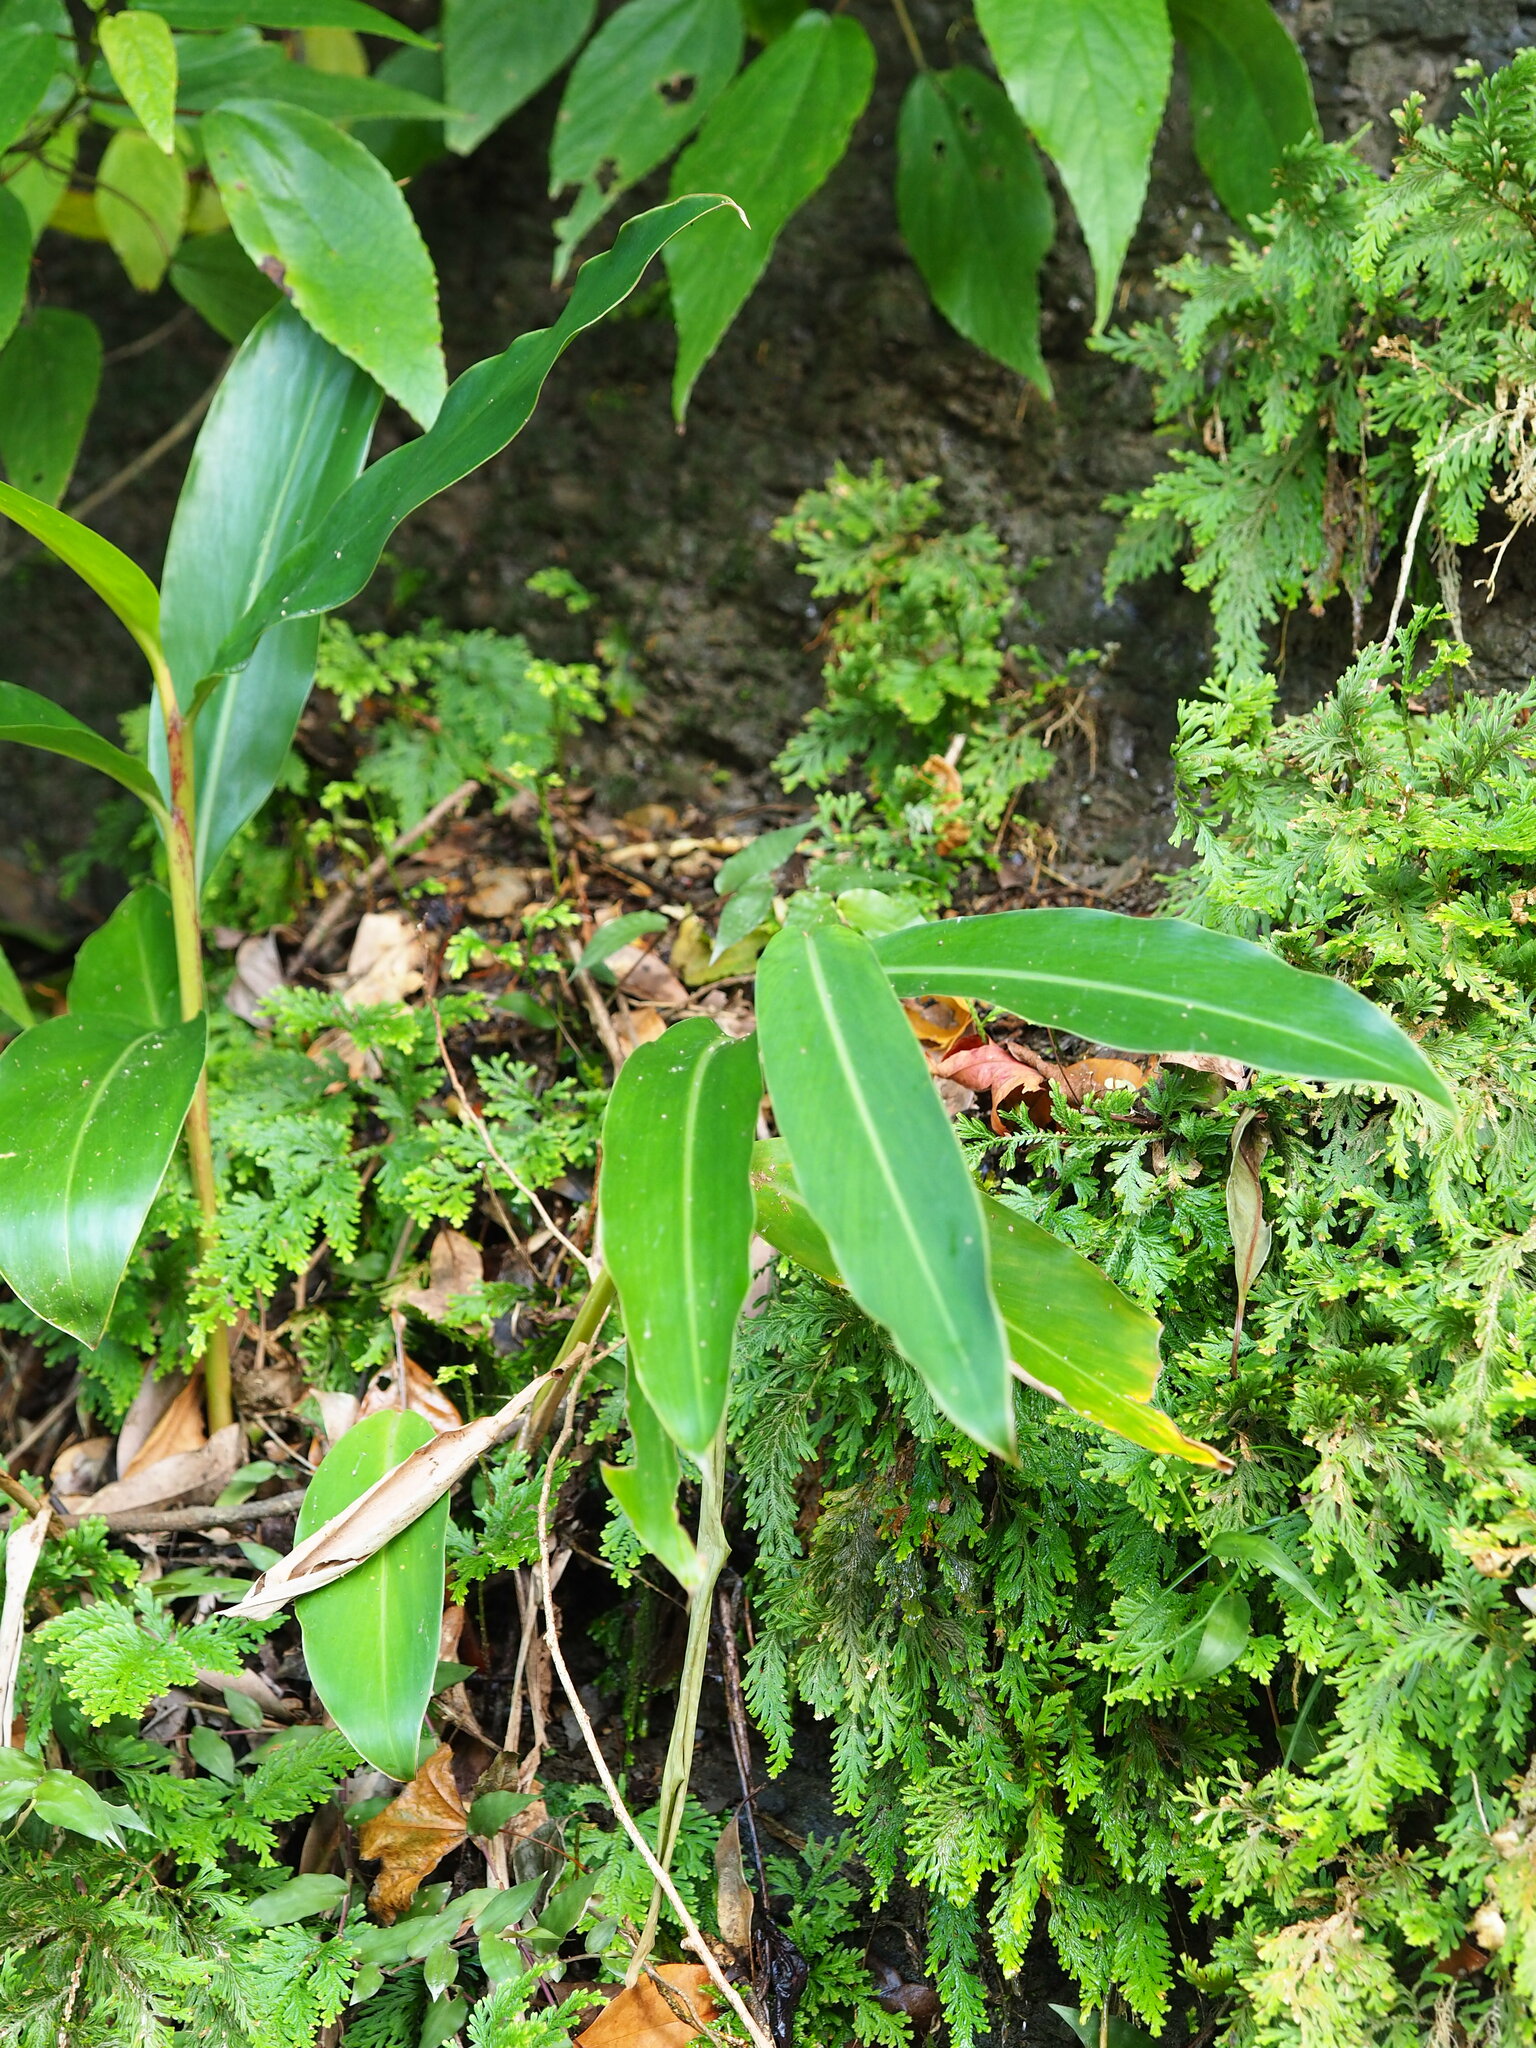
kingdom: Plantae
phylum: Tracheophyta
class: Liliopsida
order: Zingiberales
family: Zingiberaceae
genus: Alpinia
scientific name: Alpinia zerumbet
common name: Shellplant
